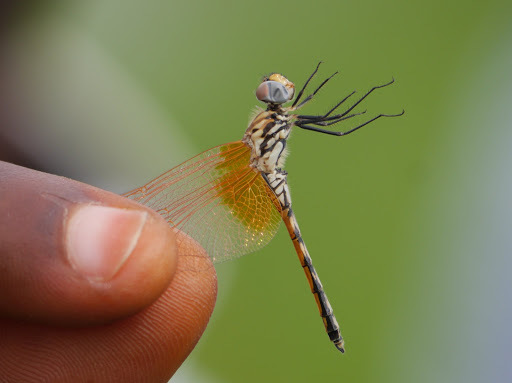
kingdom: Animalia
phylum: Arthropoda
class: Insecta
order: Odonata
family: Libellulidae
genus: Trithemis
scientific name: Trithemis arteriosa
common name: Red-veined dropwing
